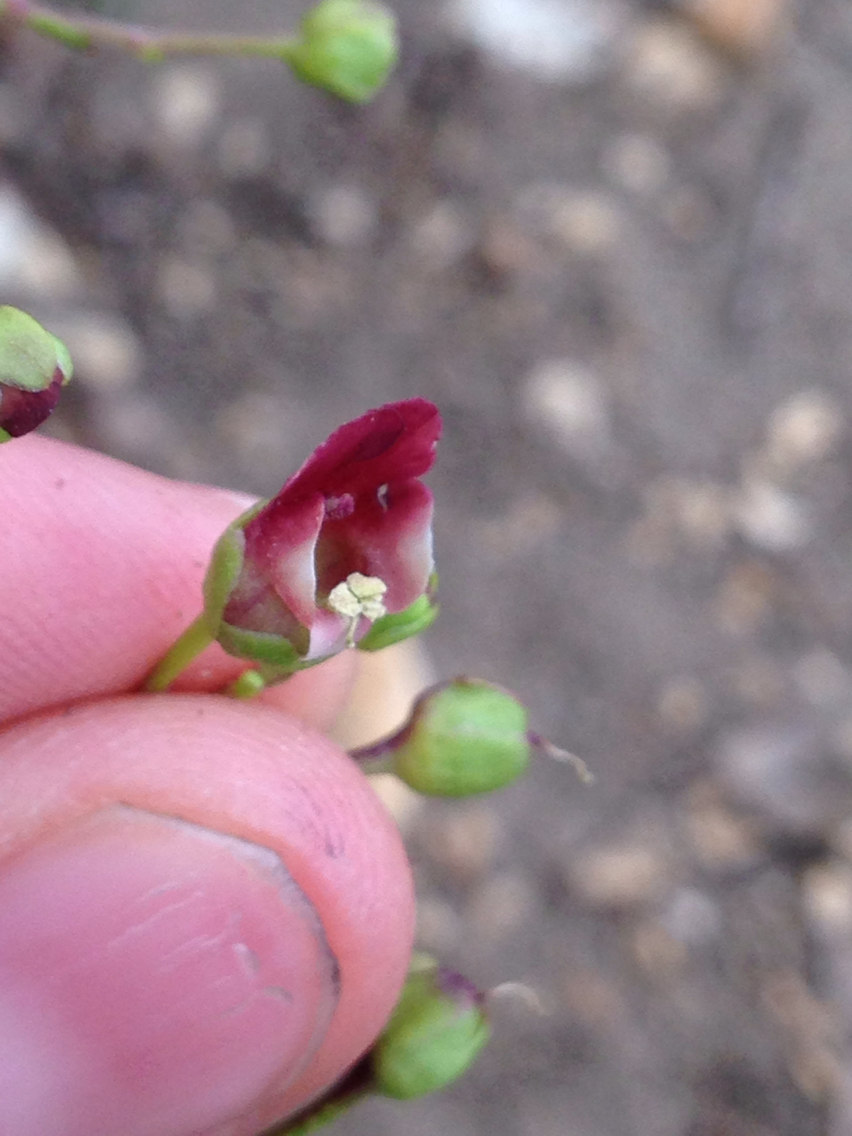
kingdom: Plantae
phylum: Tracheophyta
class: Magnoliopsida
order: Lamiales
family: Scrophulariaceae
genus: Scrophularia
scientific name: Scrophularia californica
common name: California figwort
